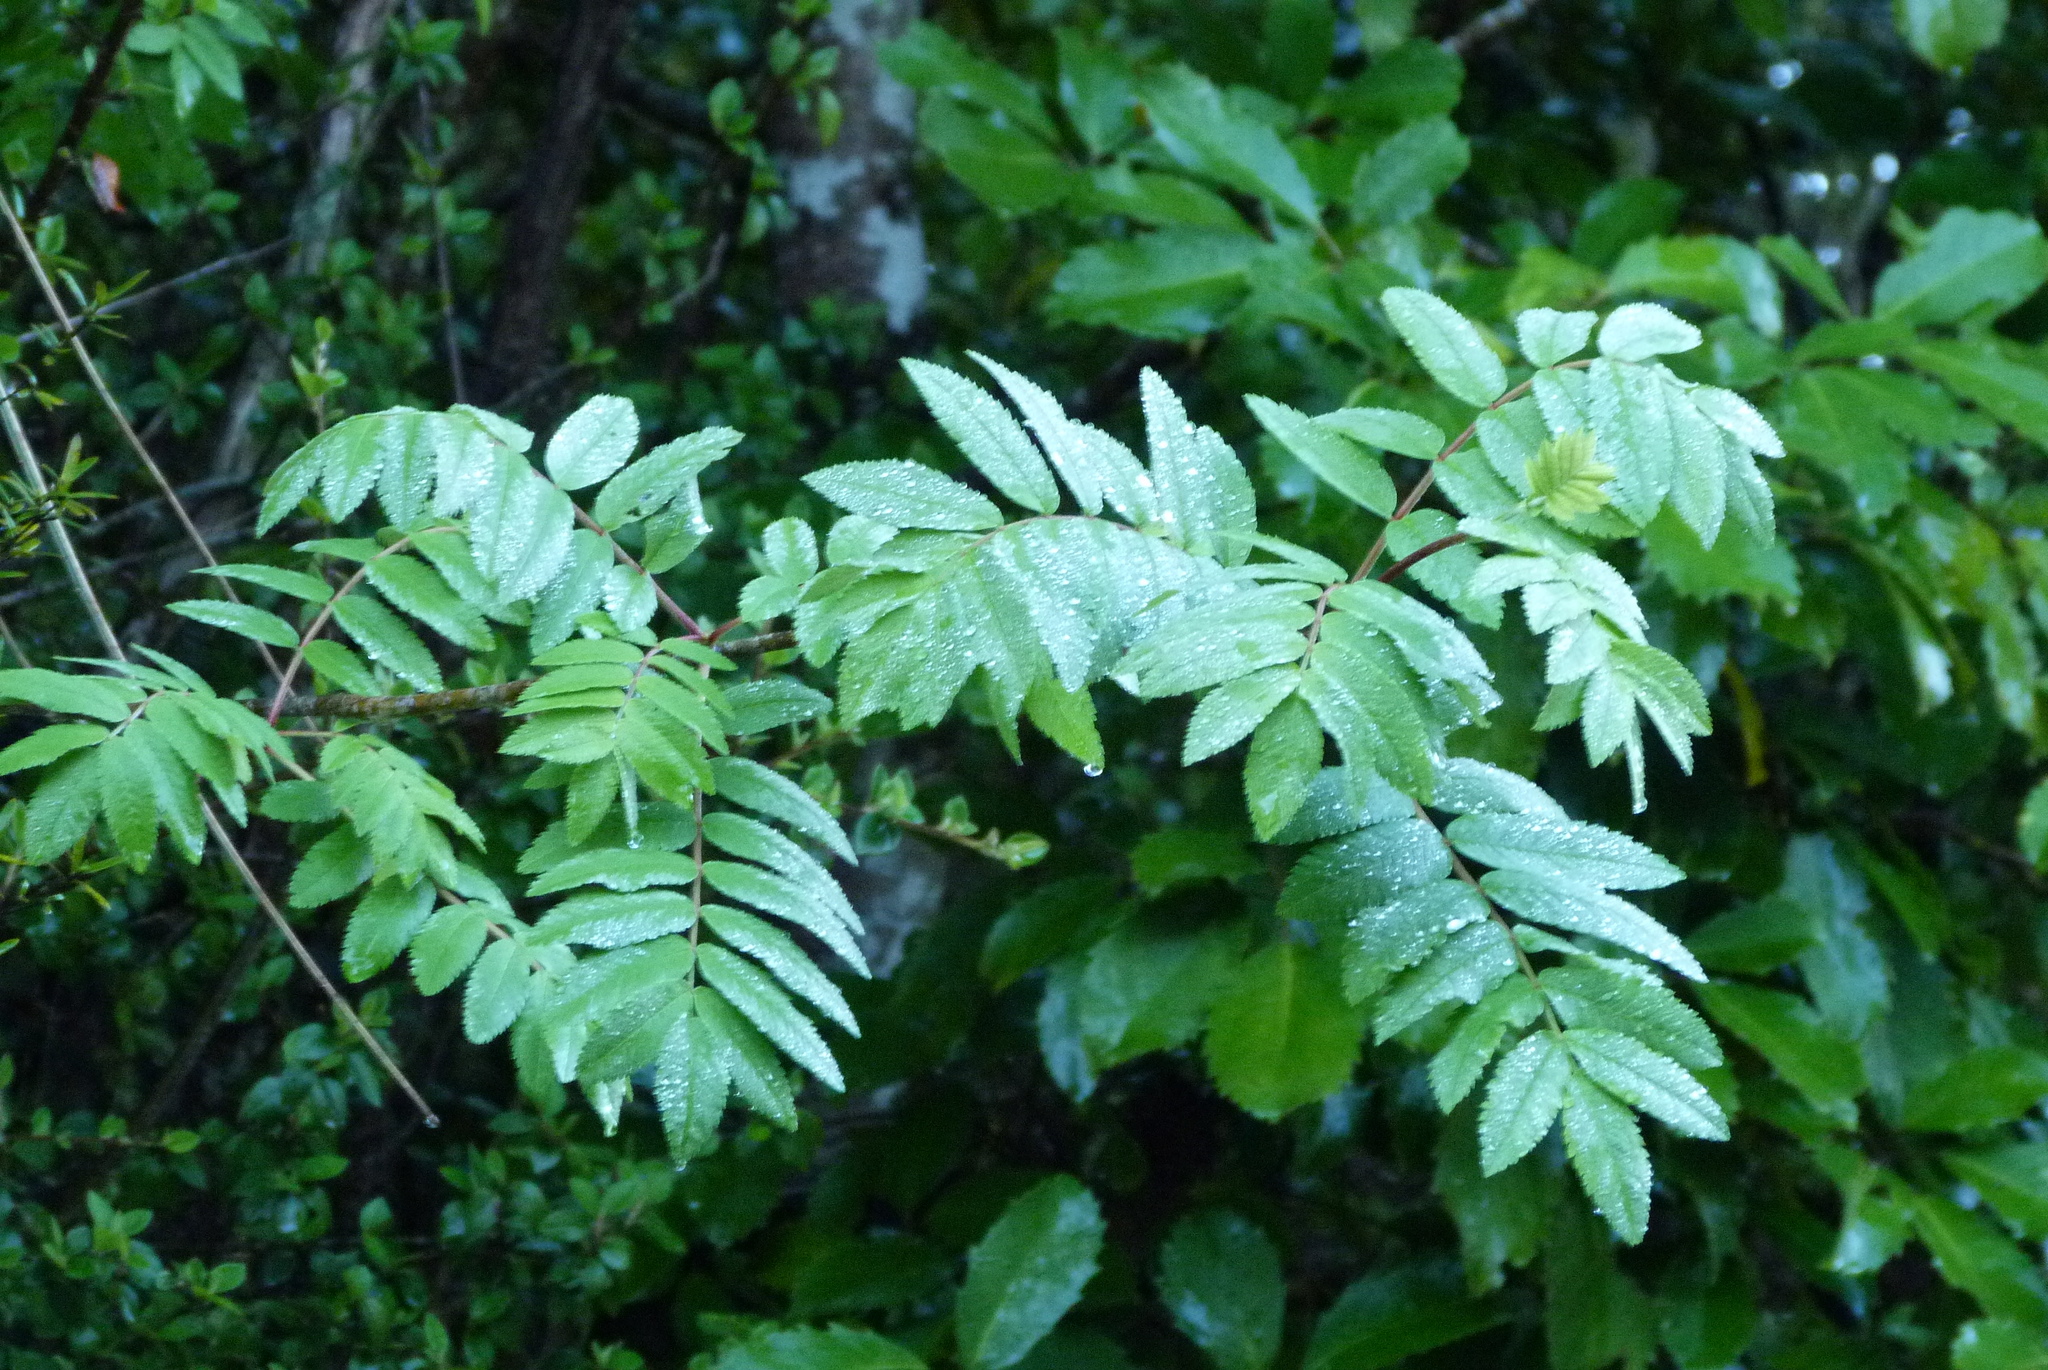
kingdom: Plantae
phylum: Tracheophyta
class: Magnoliopsida
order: Rosales
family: Rosaceae
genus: Sorbus
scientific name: Sorbus aucuparia
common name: Rowan
